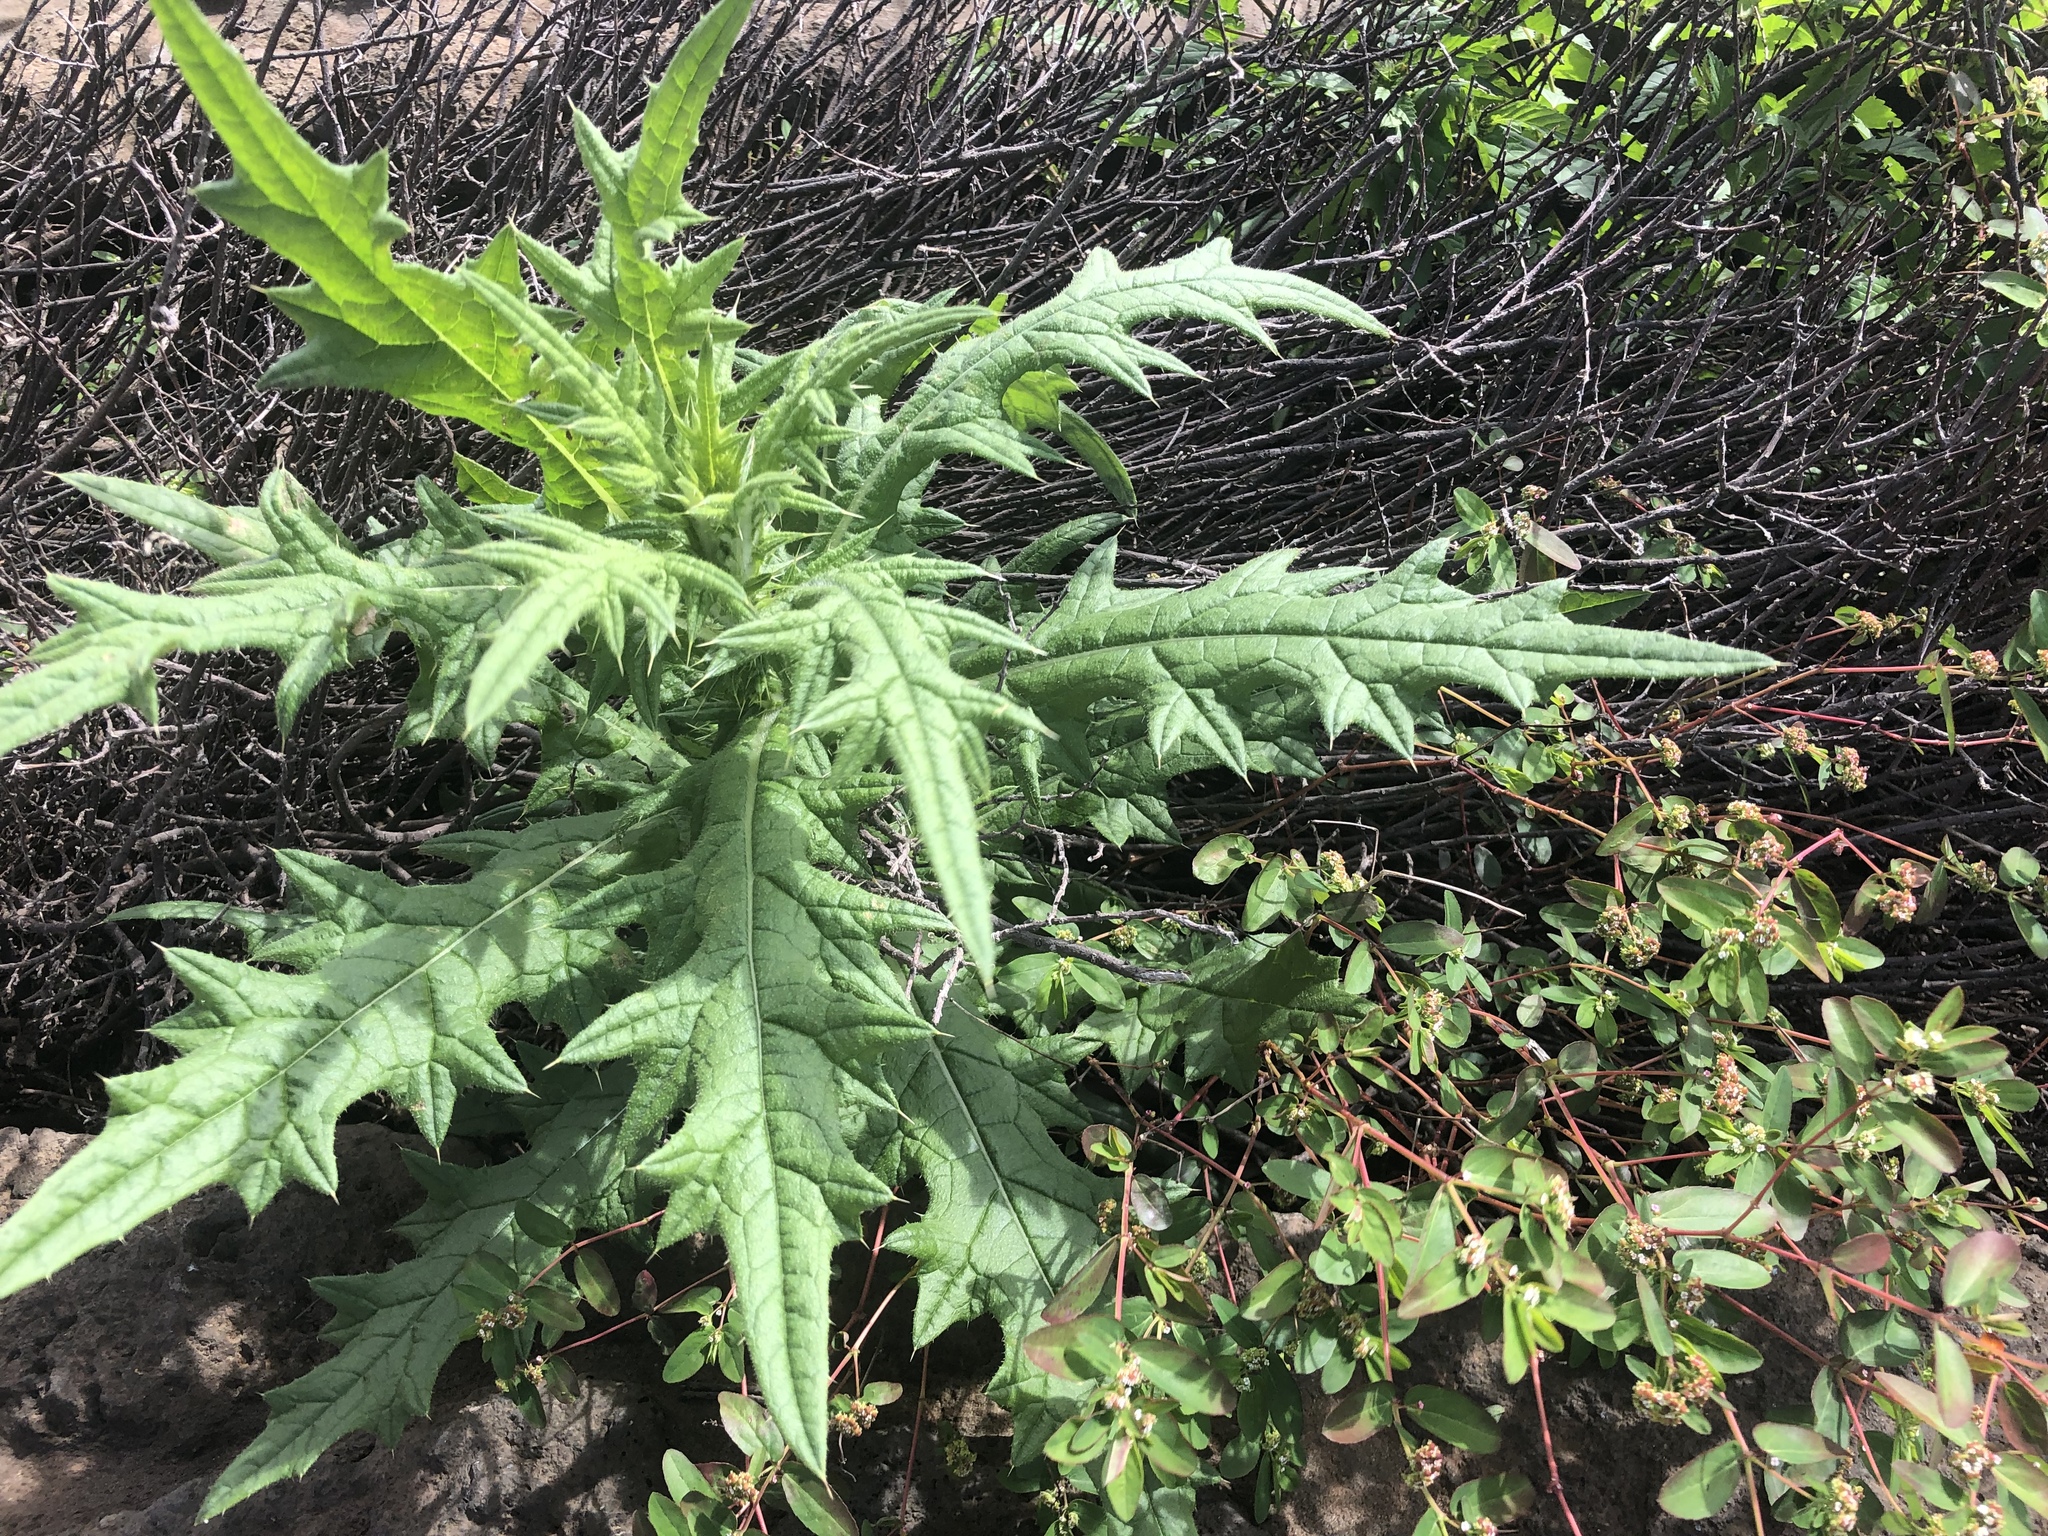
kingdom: Plantae
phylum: Tracheophyta
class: Magnoliopsida
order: Asterales
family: Asteraceae
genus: Cirsium
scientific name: Cirsium vulgare
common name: Bull thistle
